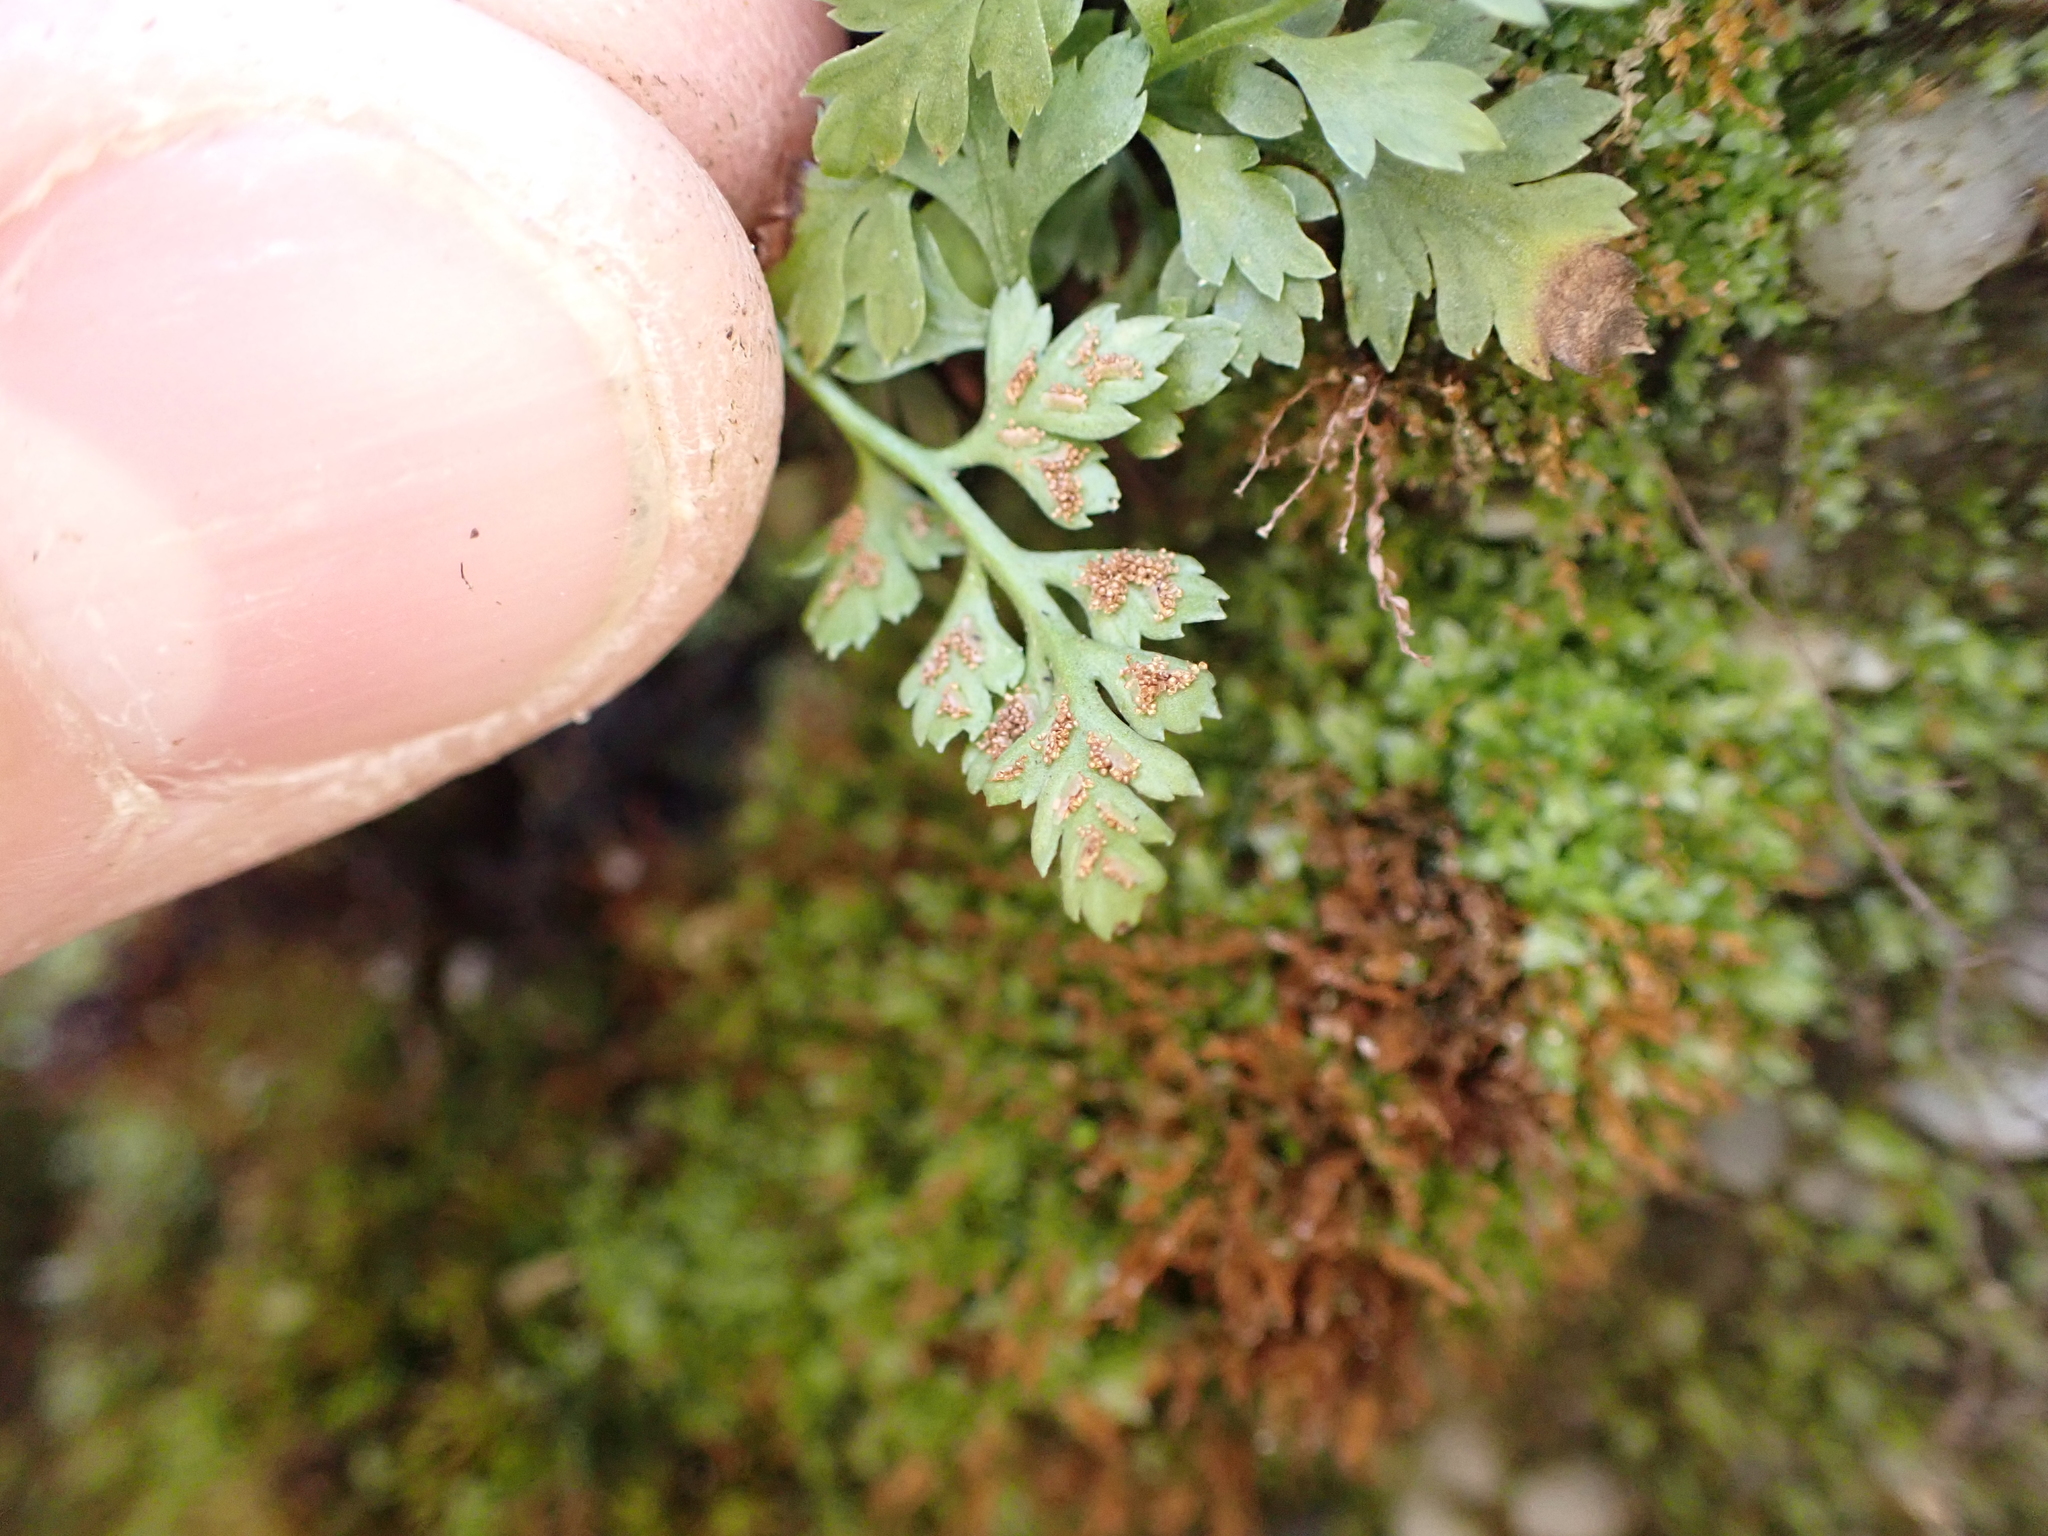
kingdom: Plantae
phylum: Tracheophyta
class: Polypodiopsida
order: Polypodiales
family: Aspleniaceae
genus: Asplenium
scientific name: Asplenium montanum
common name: Mountain spleenwort
